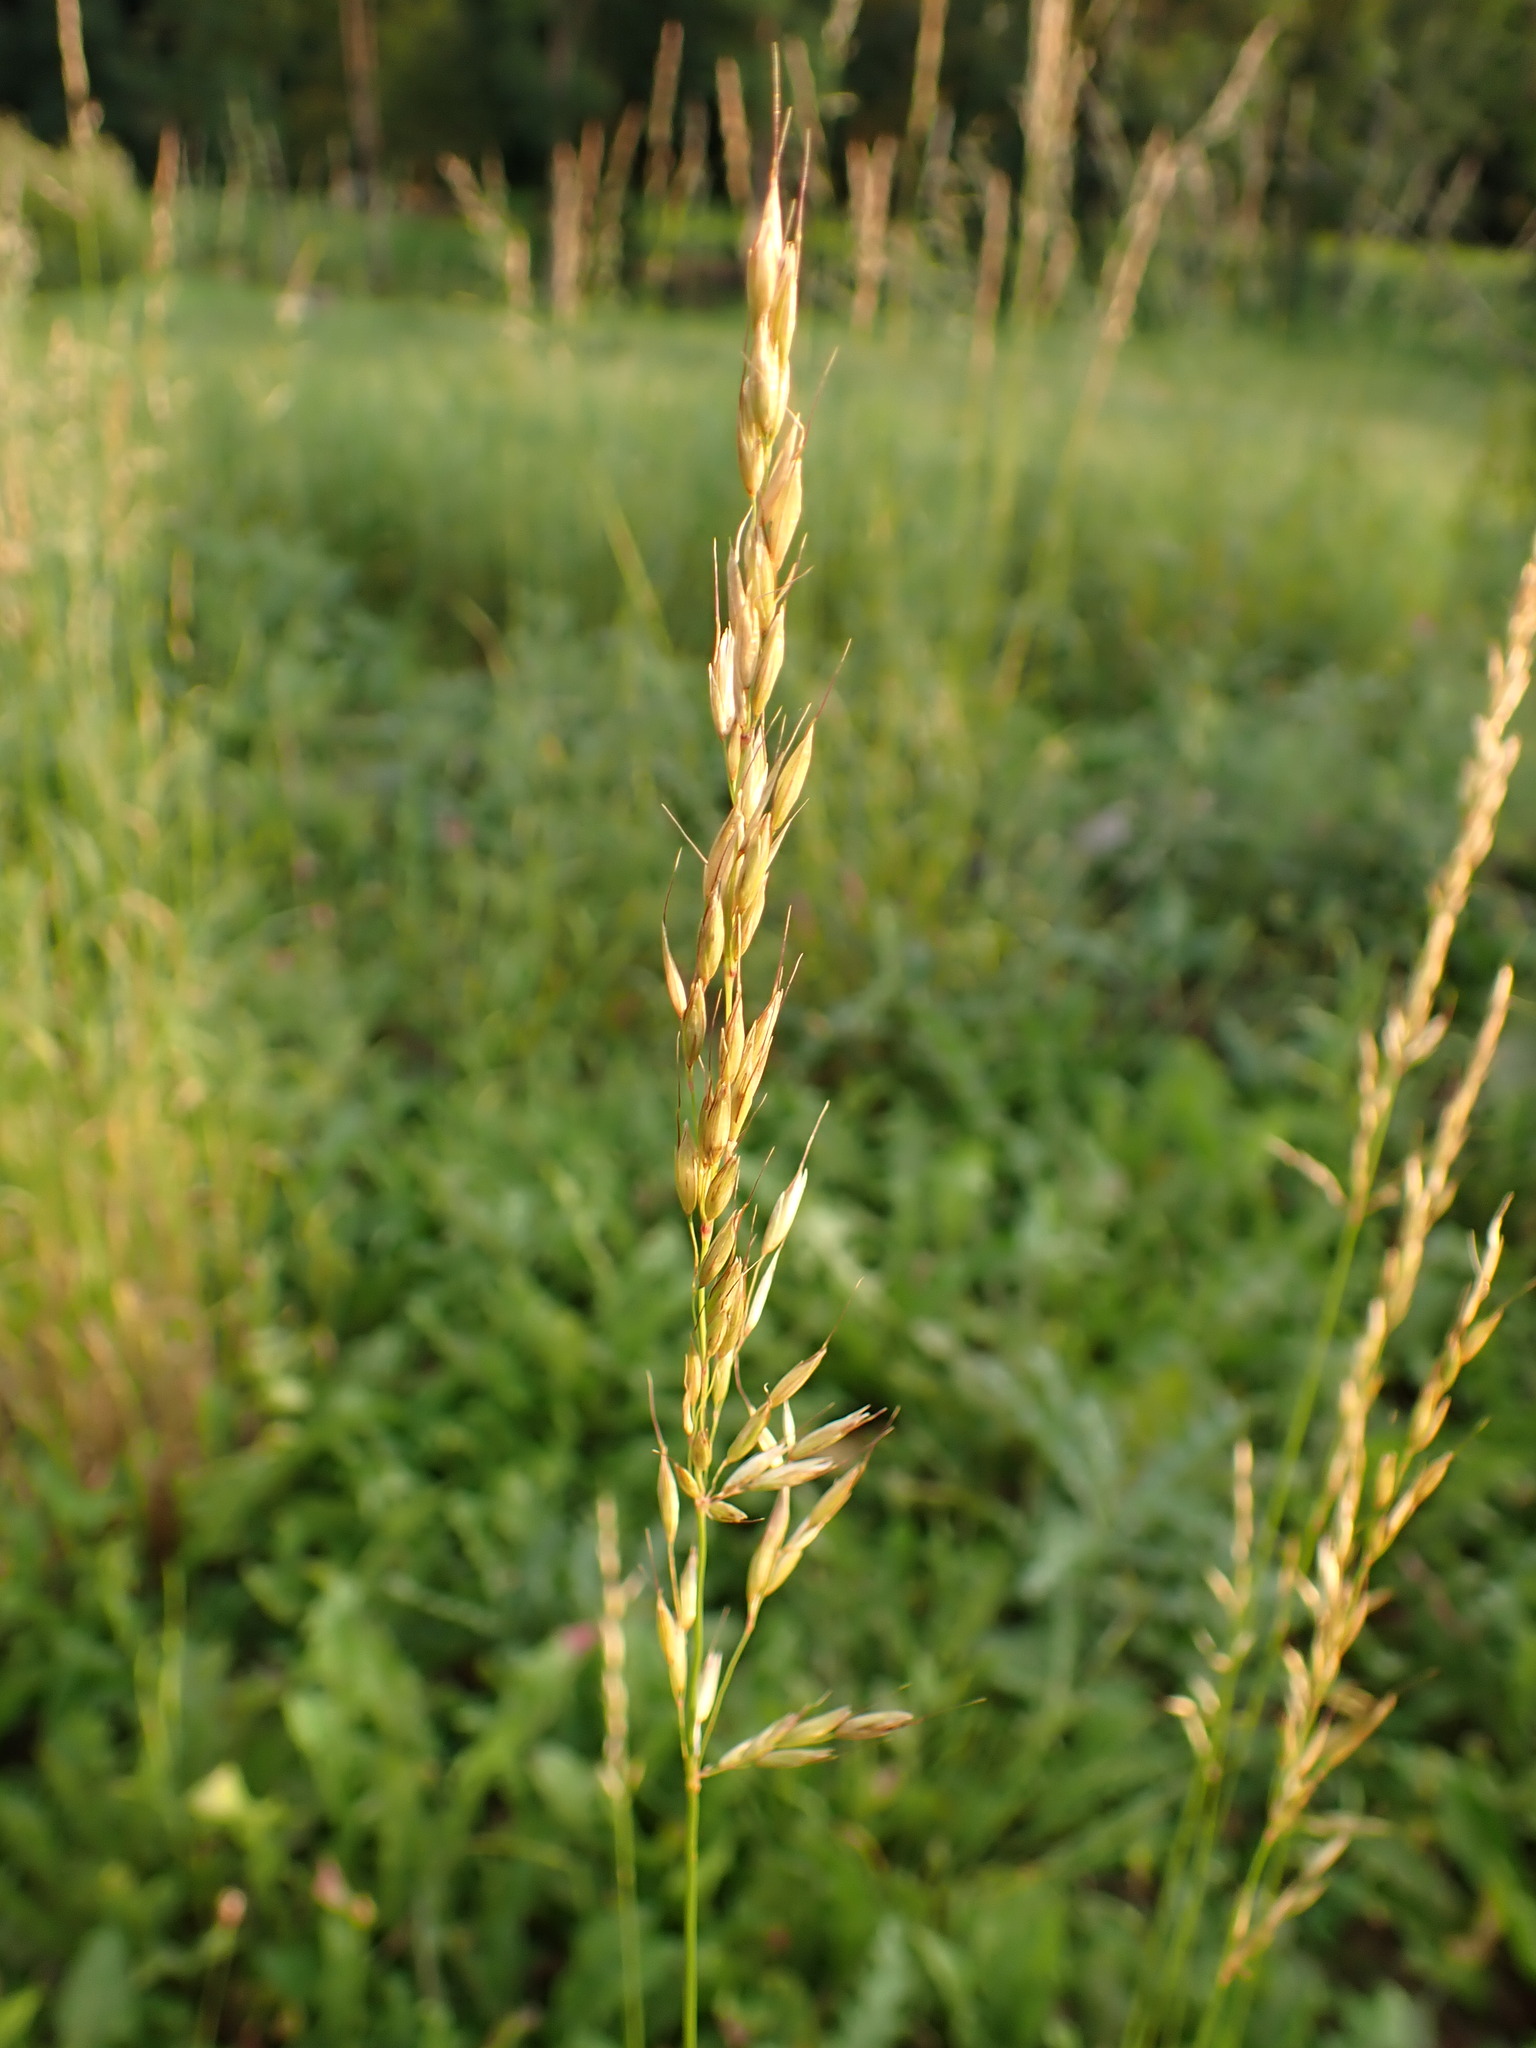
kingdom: Plantae
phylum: Tracheophyta
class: Liliopsida
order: Poales
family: Poaceae
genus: Arrhenatherum
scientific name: Arrhenatherum elatius
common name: Tall oatgrass
